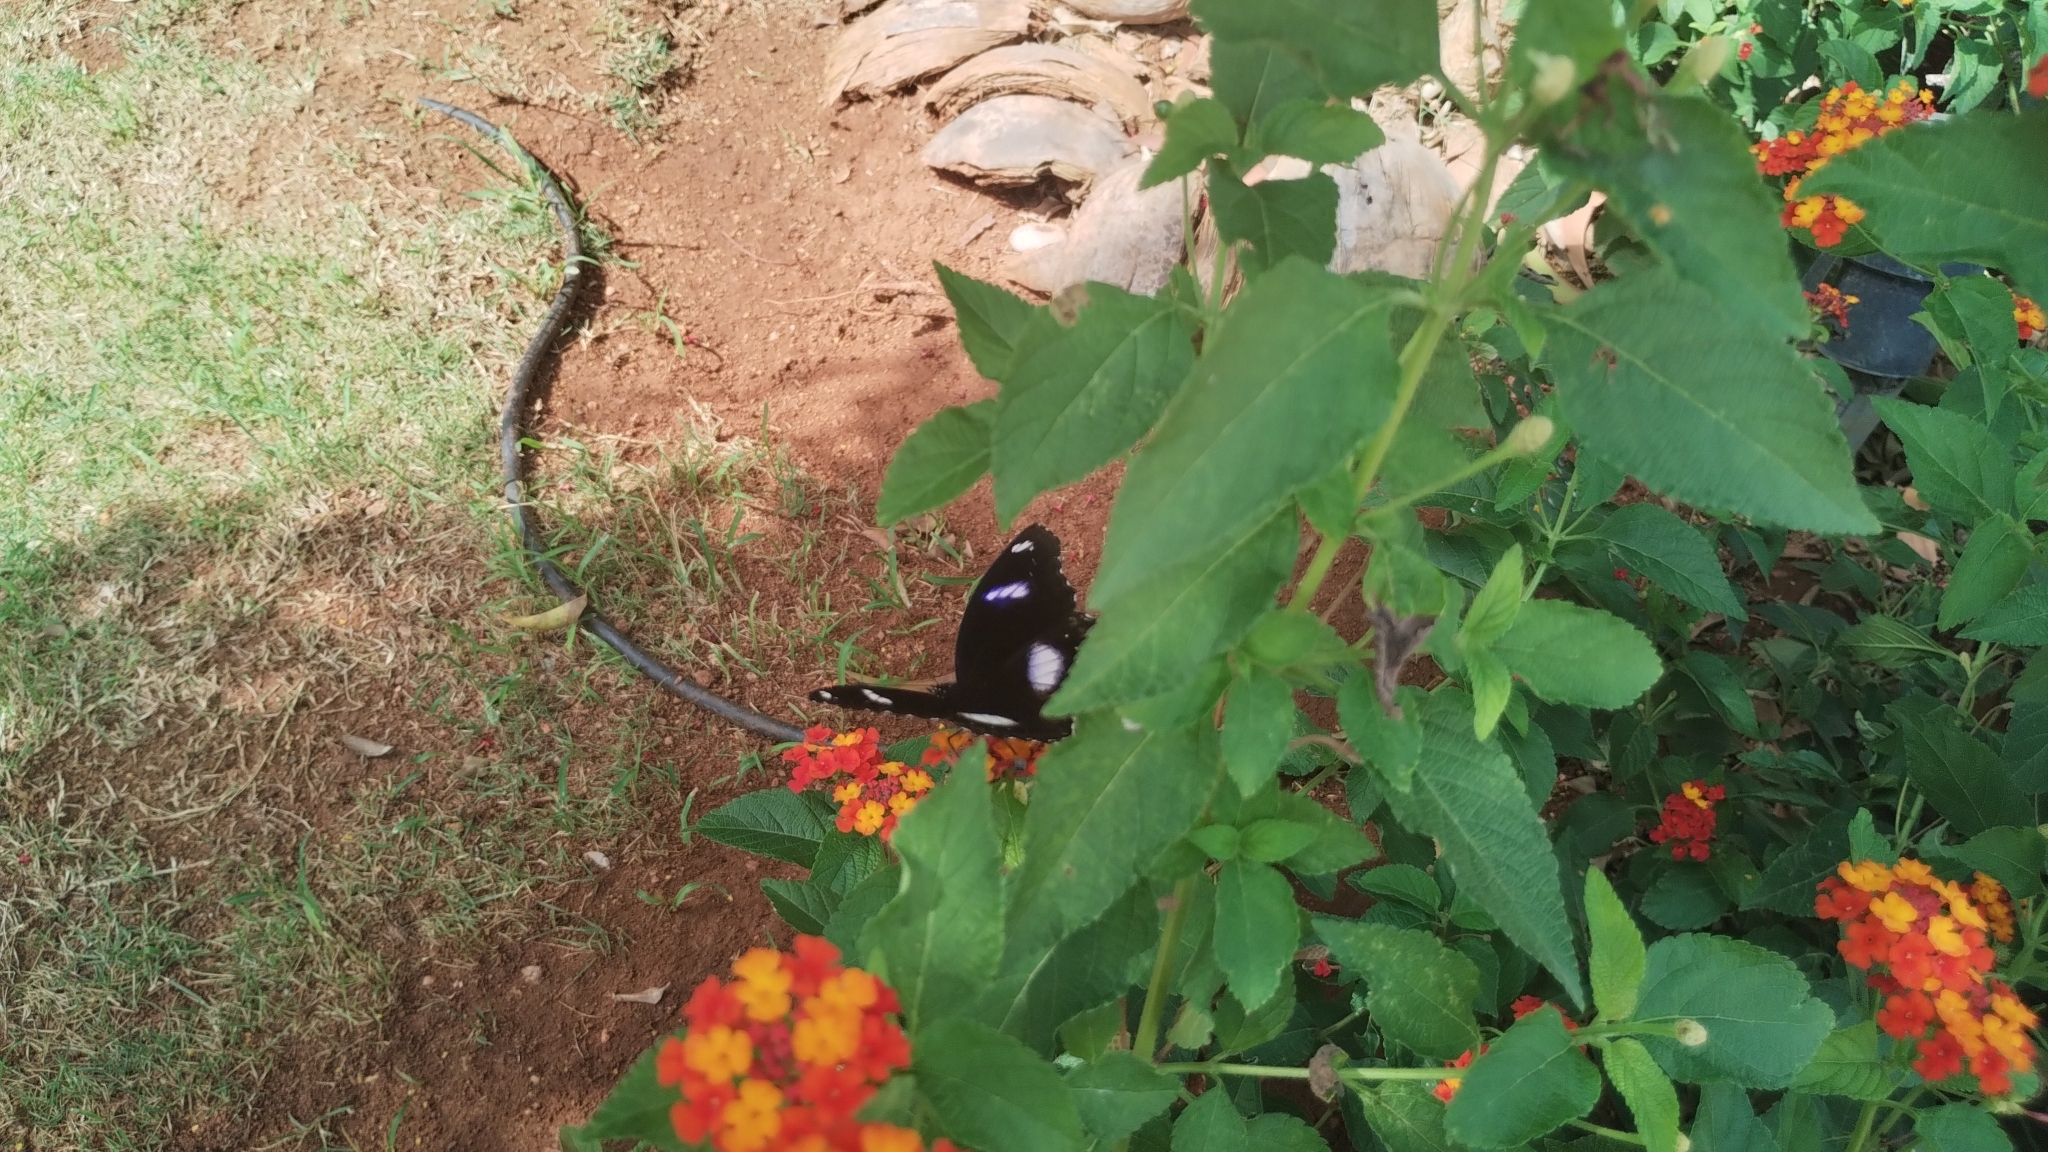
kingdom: Animalia
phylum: Arthropoda
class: Insecta
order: Lepidoptera
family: Nymphalidae
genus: Hypolimnas
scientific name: Hypolimnas bolina
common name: Great eggfly
